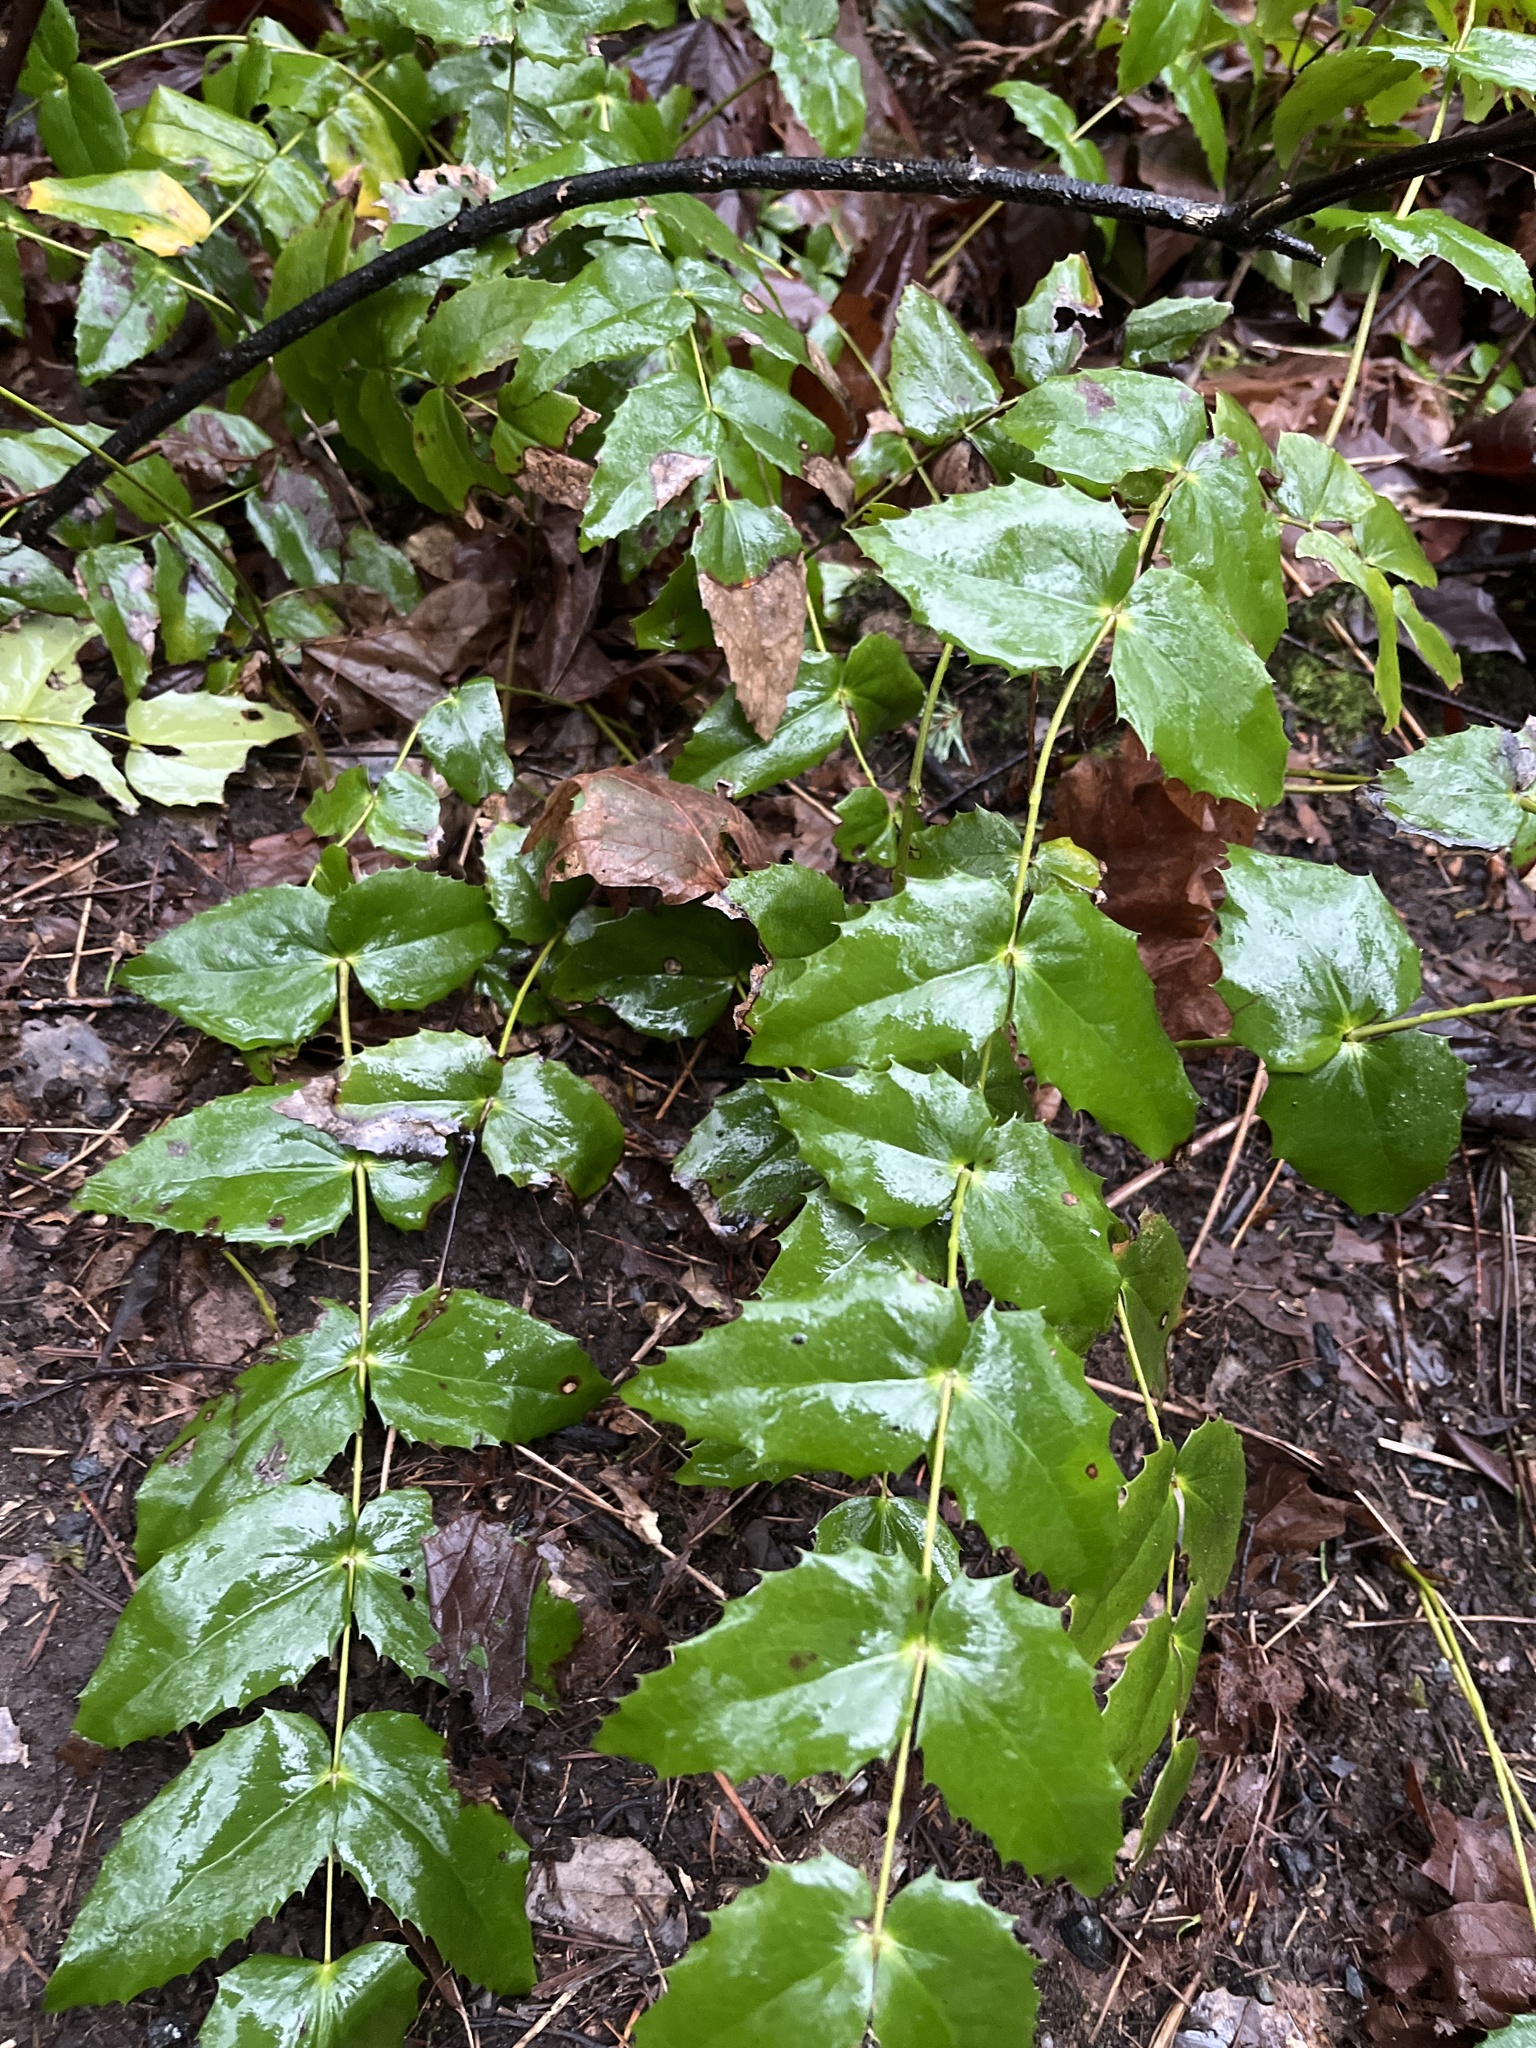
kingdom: Plantae
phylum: Tracheophyta
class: Magnoliopsida
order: Ranunculales
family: Berberidaceae
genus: Mahonia
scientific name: Mahonia nervosa
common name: Cascade oregon-grape
